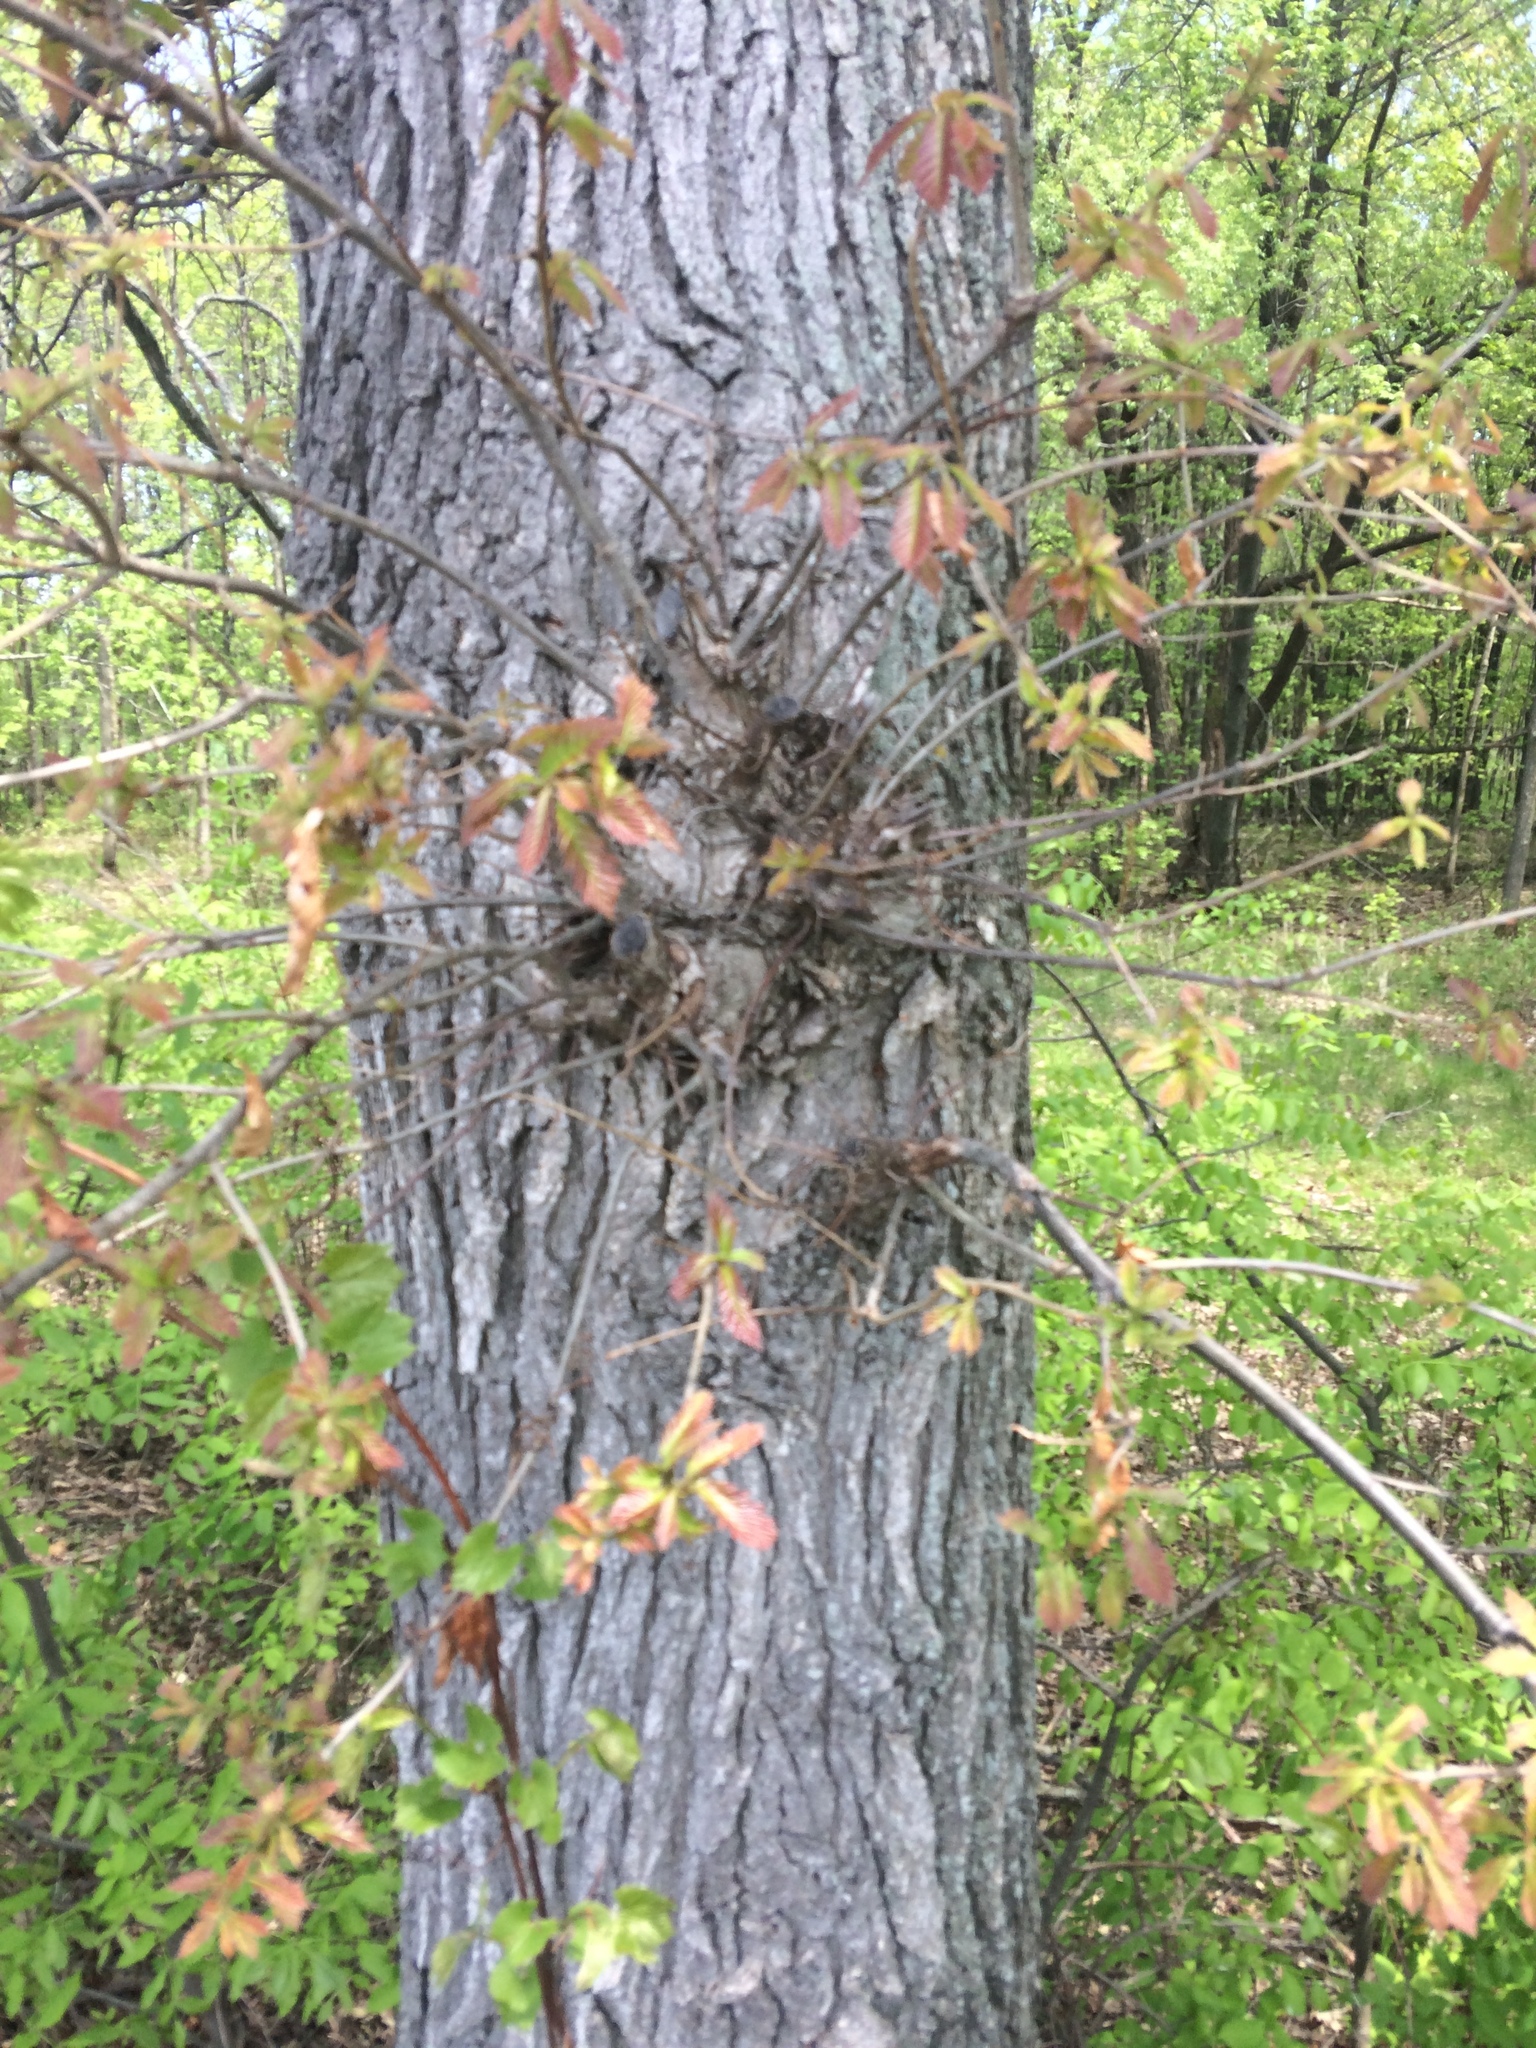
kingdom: Plantae
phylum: Tracheophyta
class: Magnoliopsida
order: Fagales
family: Fagaceae
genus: Quercus
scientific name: Quercus bicolor
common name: Swamp white oak
